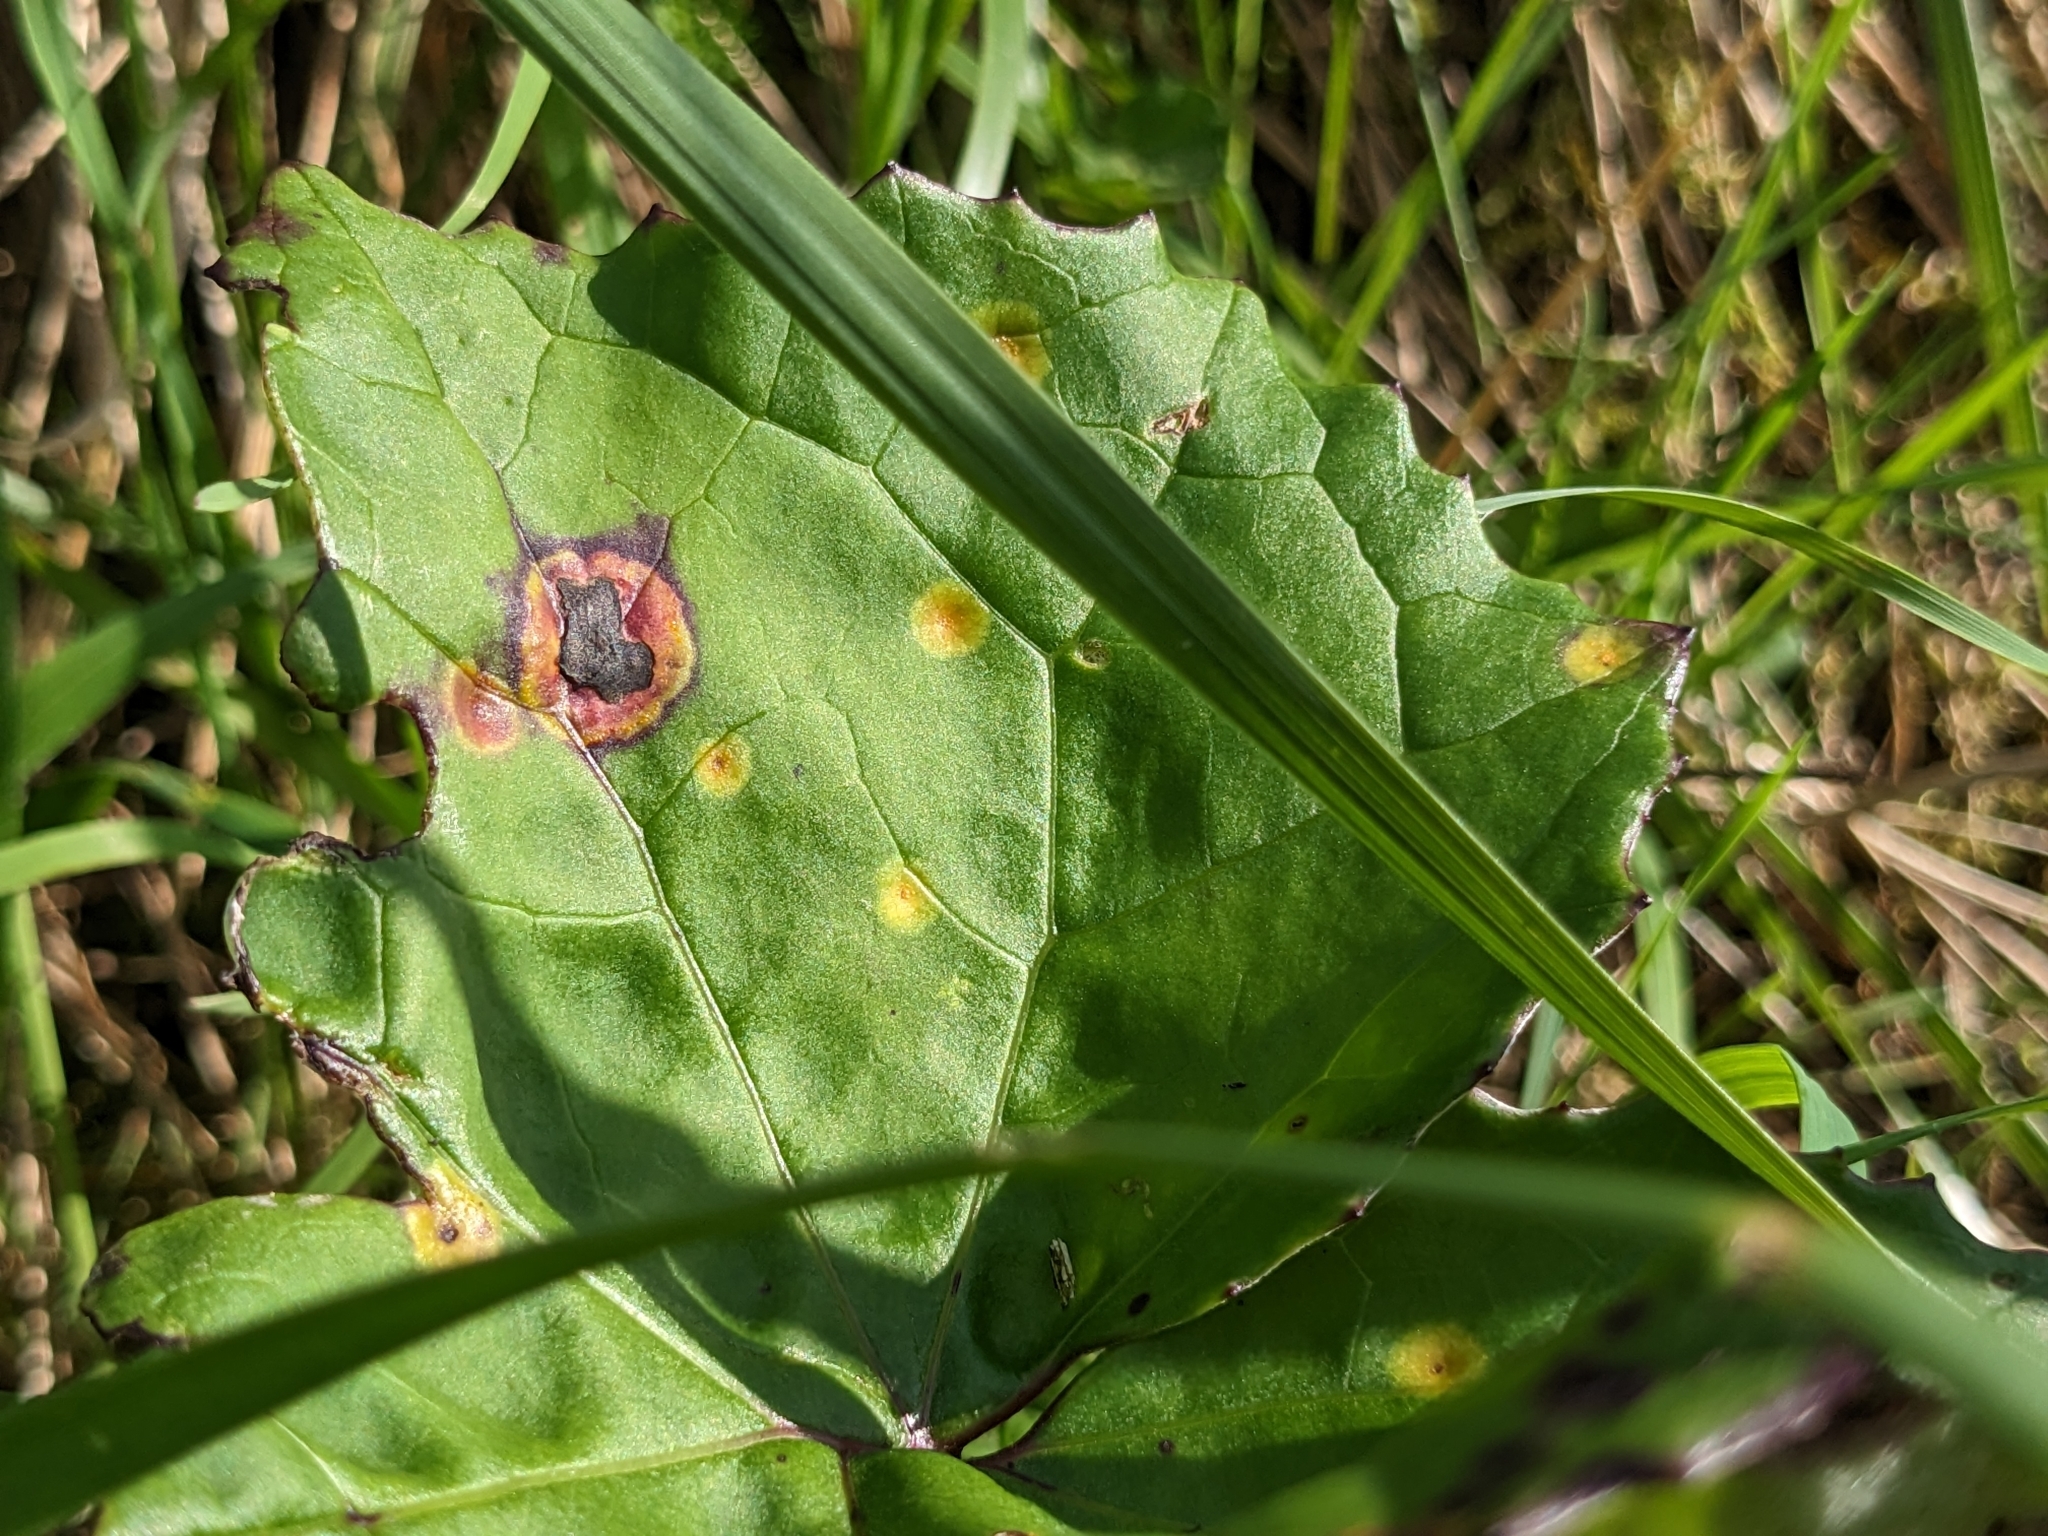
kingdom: Fungi
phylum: Basidiomycota
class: Pucciniomycetes
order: Pucciniales
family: Coleosporiaceae
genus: Coleosporium
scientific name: Coleosporium tussilaginis
